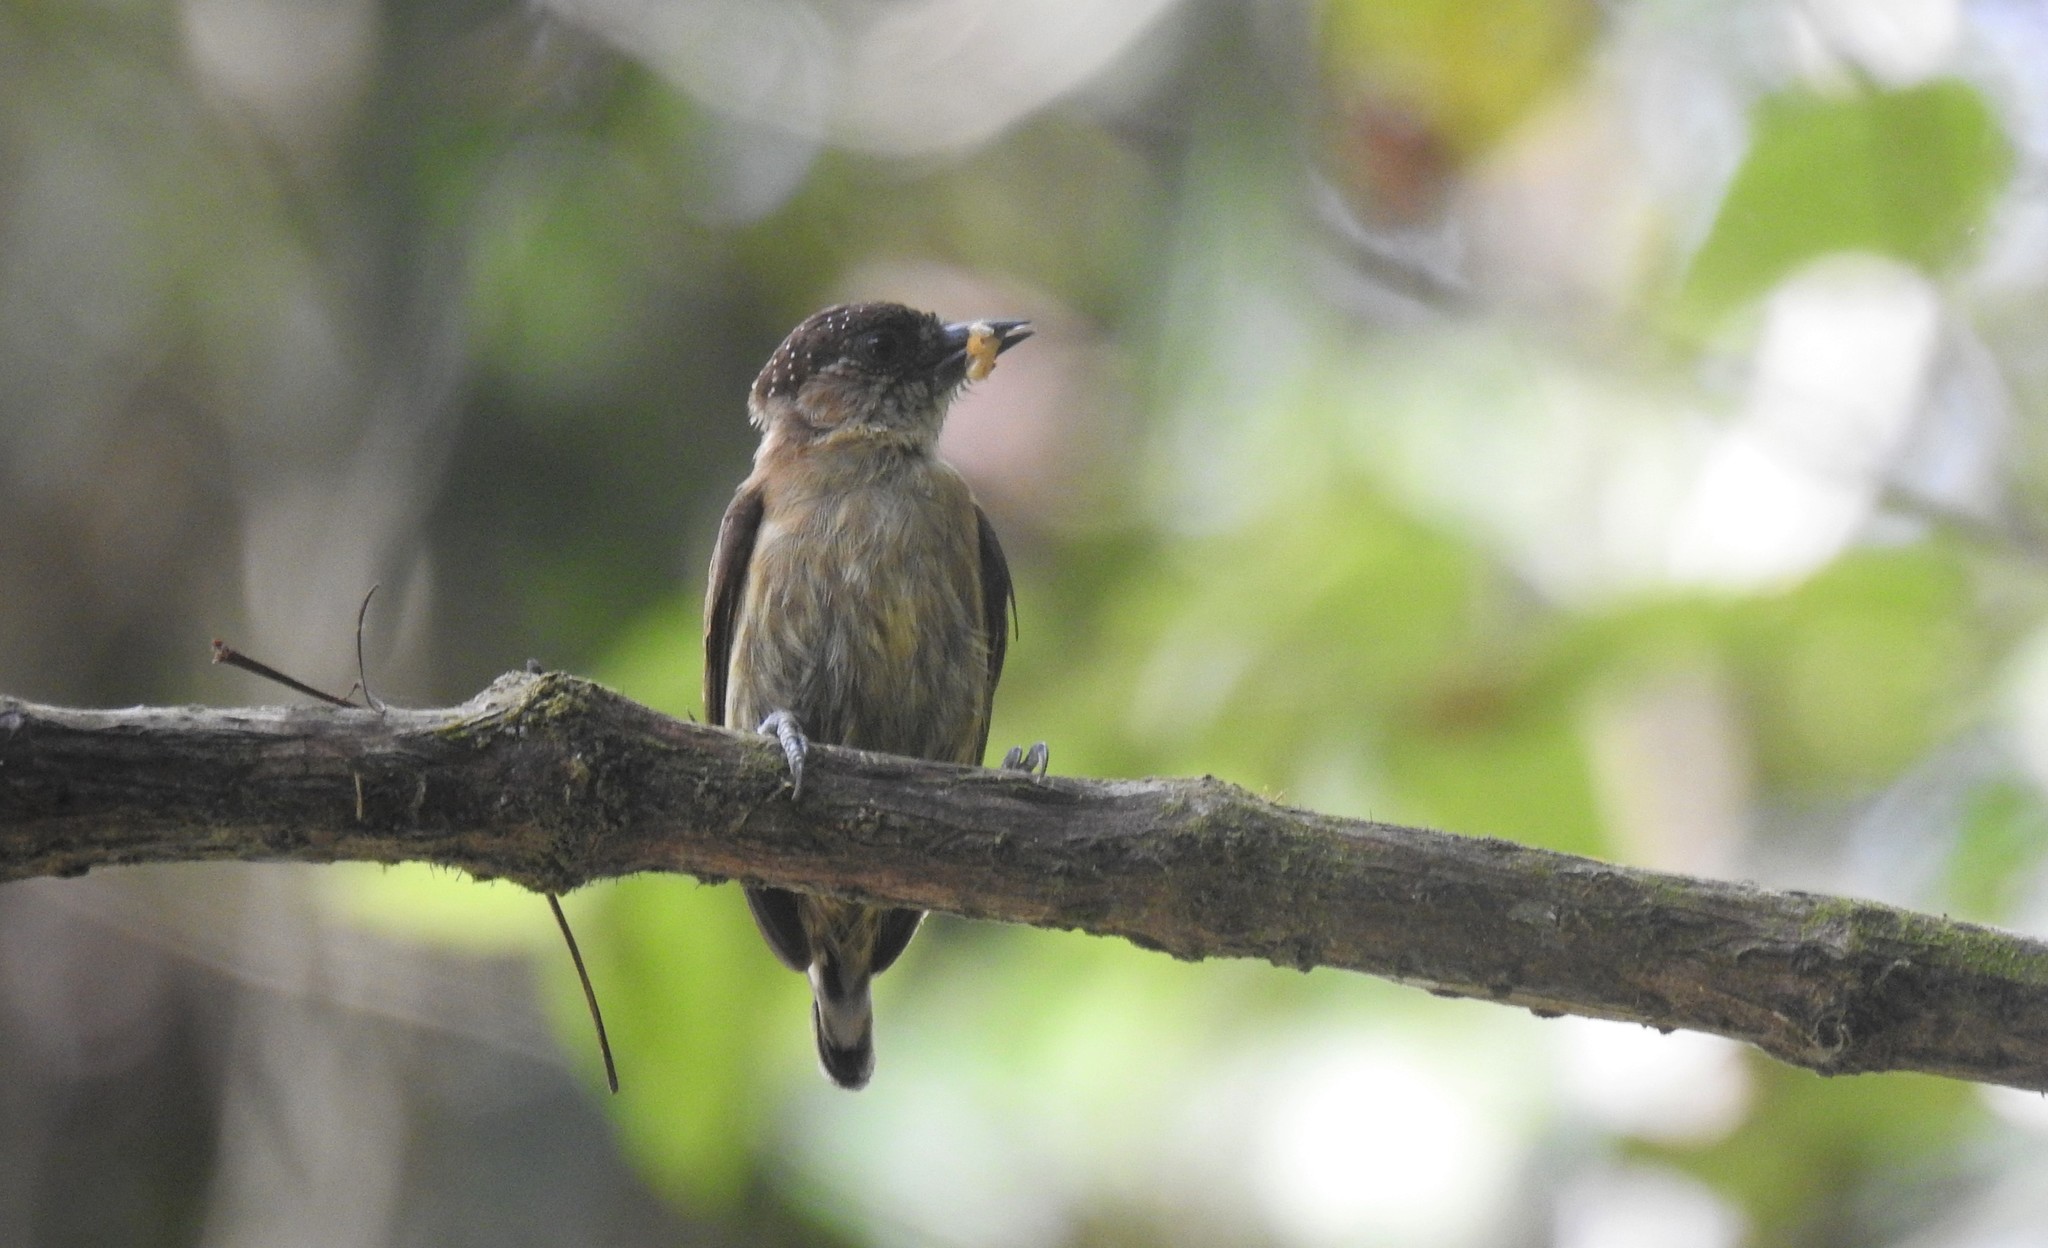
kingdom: Animalia
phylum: Chordata
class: Aves
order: Piciformes
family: Picidae
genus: Picumnus
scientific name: Picumnus olivaceus
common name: Olivaceous piculet
